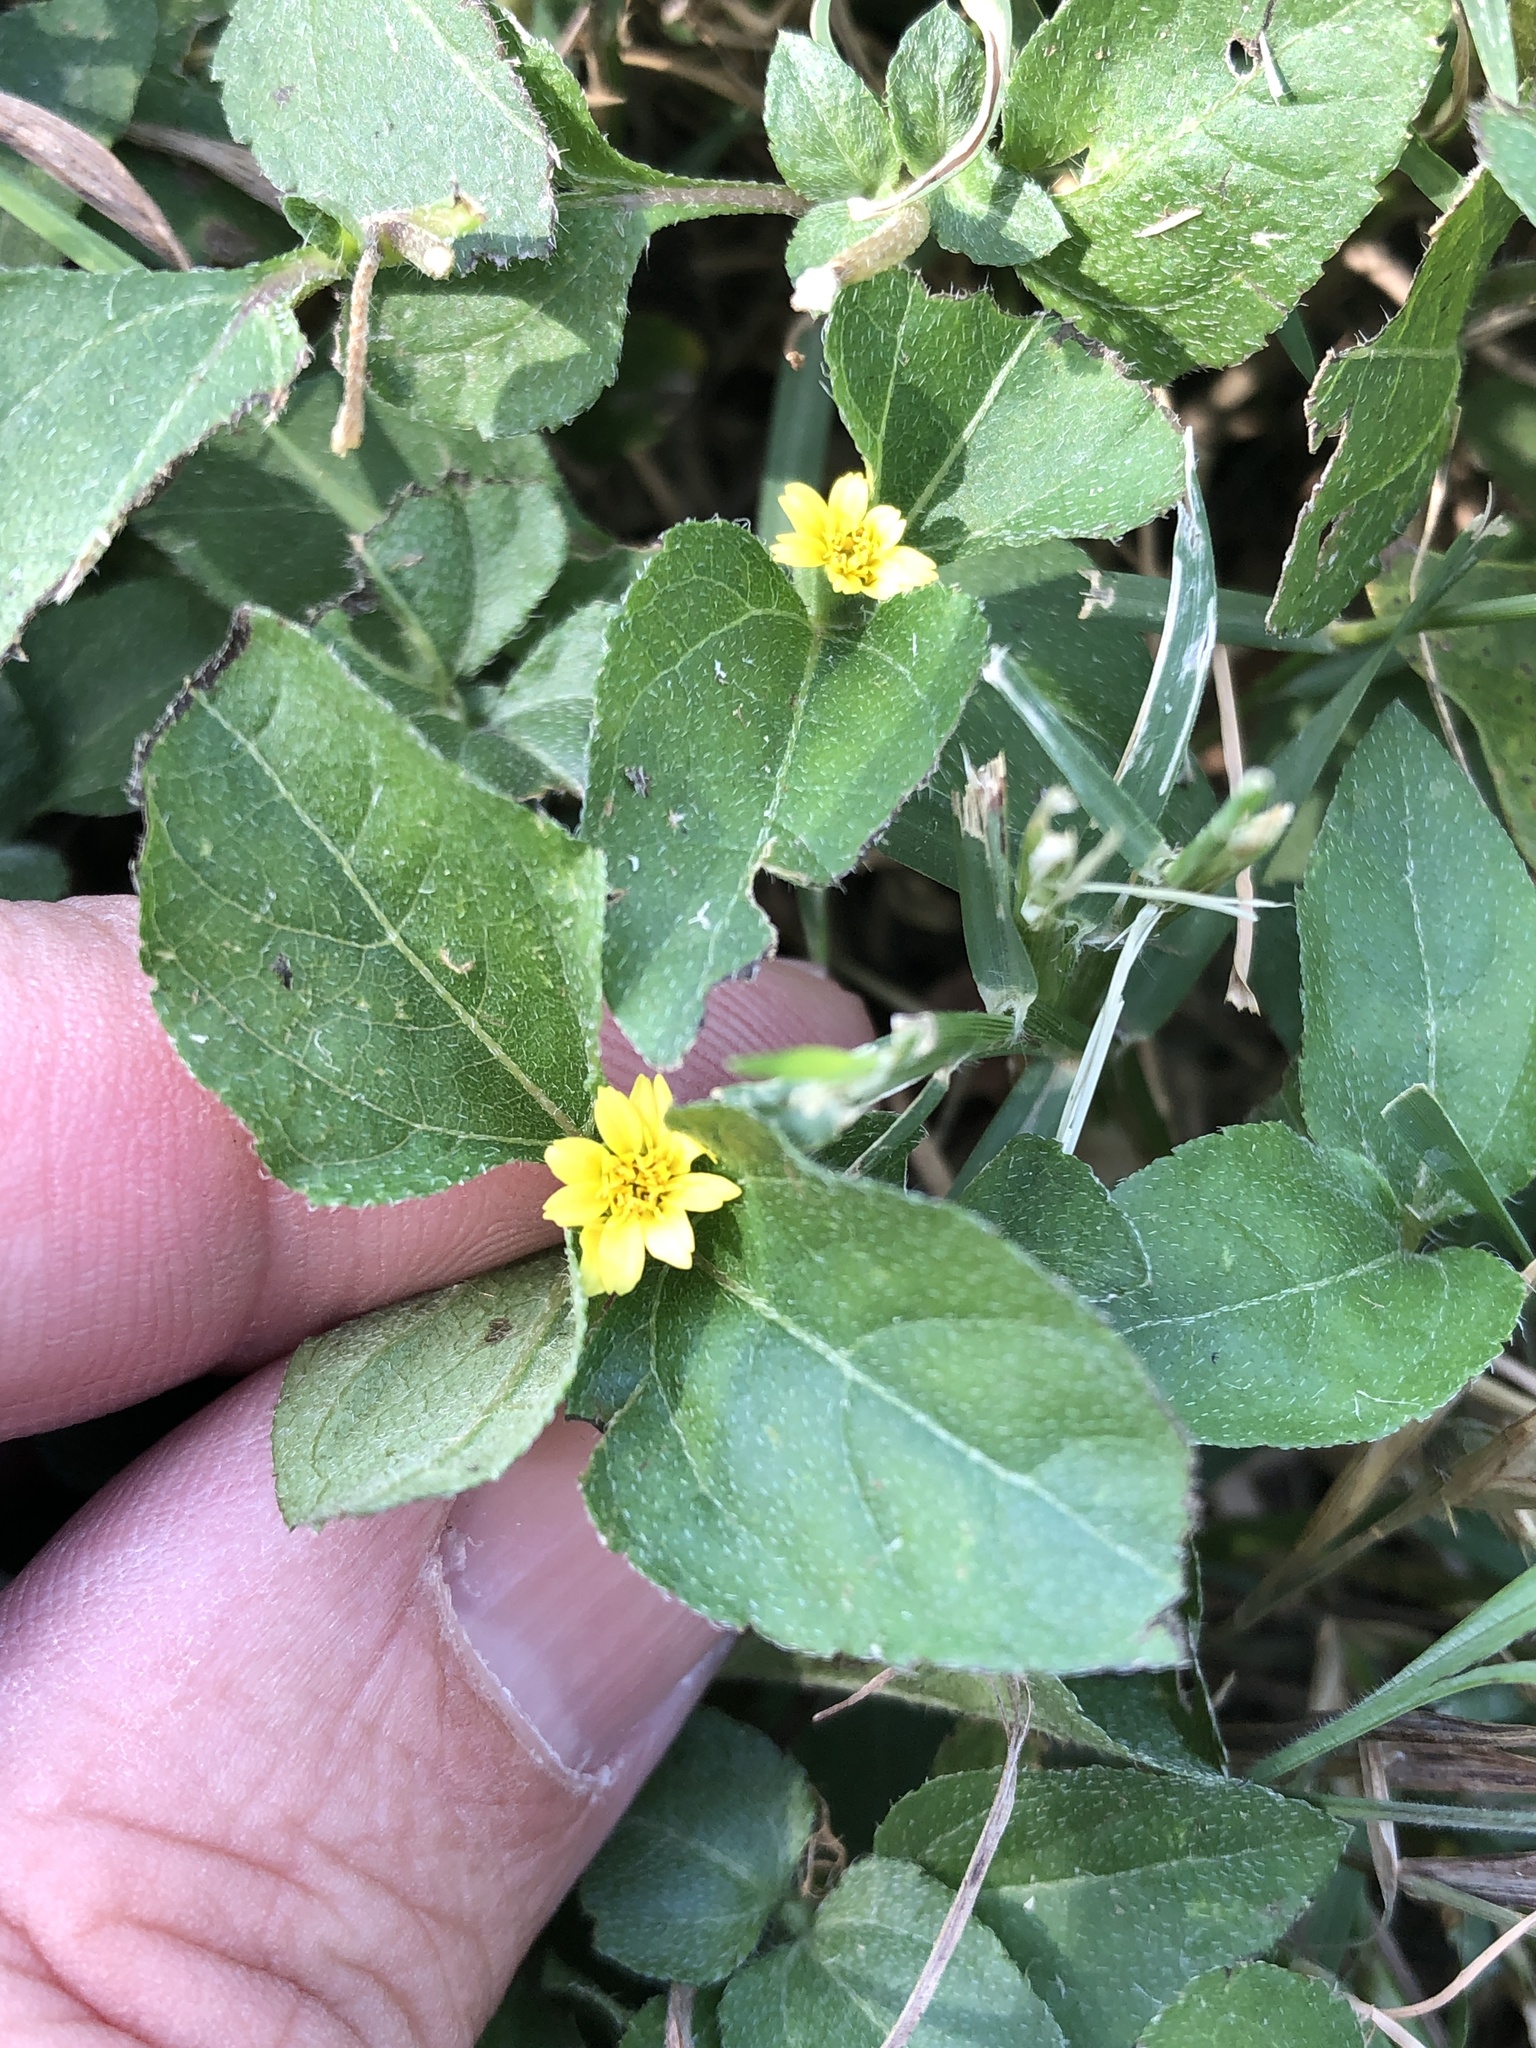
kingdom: Plantae
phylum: Tracheophyta
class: Magnoliopsida
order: Asterales
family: Asteraceae
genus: Calyptocarpus
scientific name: Calyptocarpus vialis
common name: Straggler daisy
